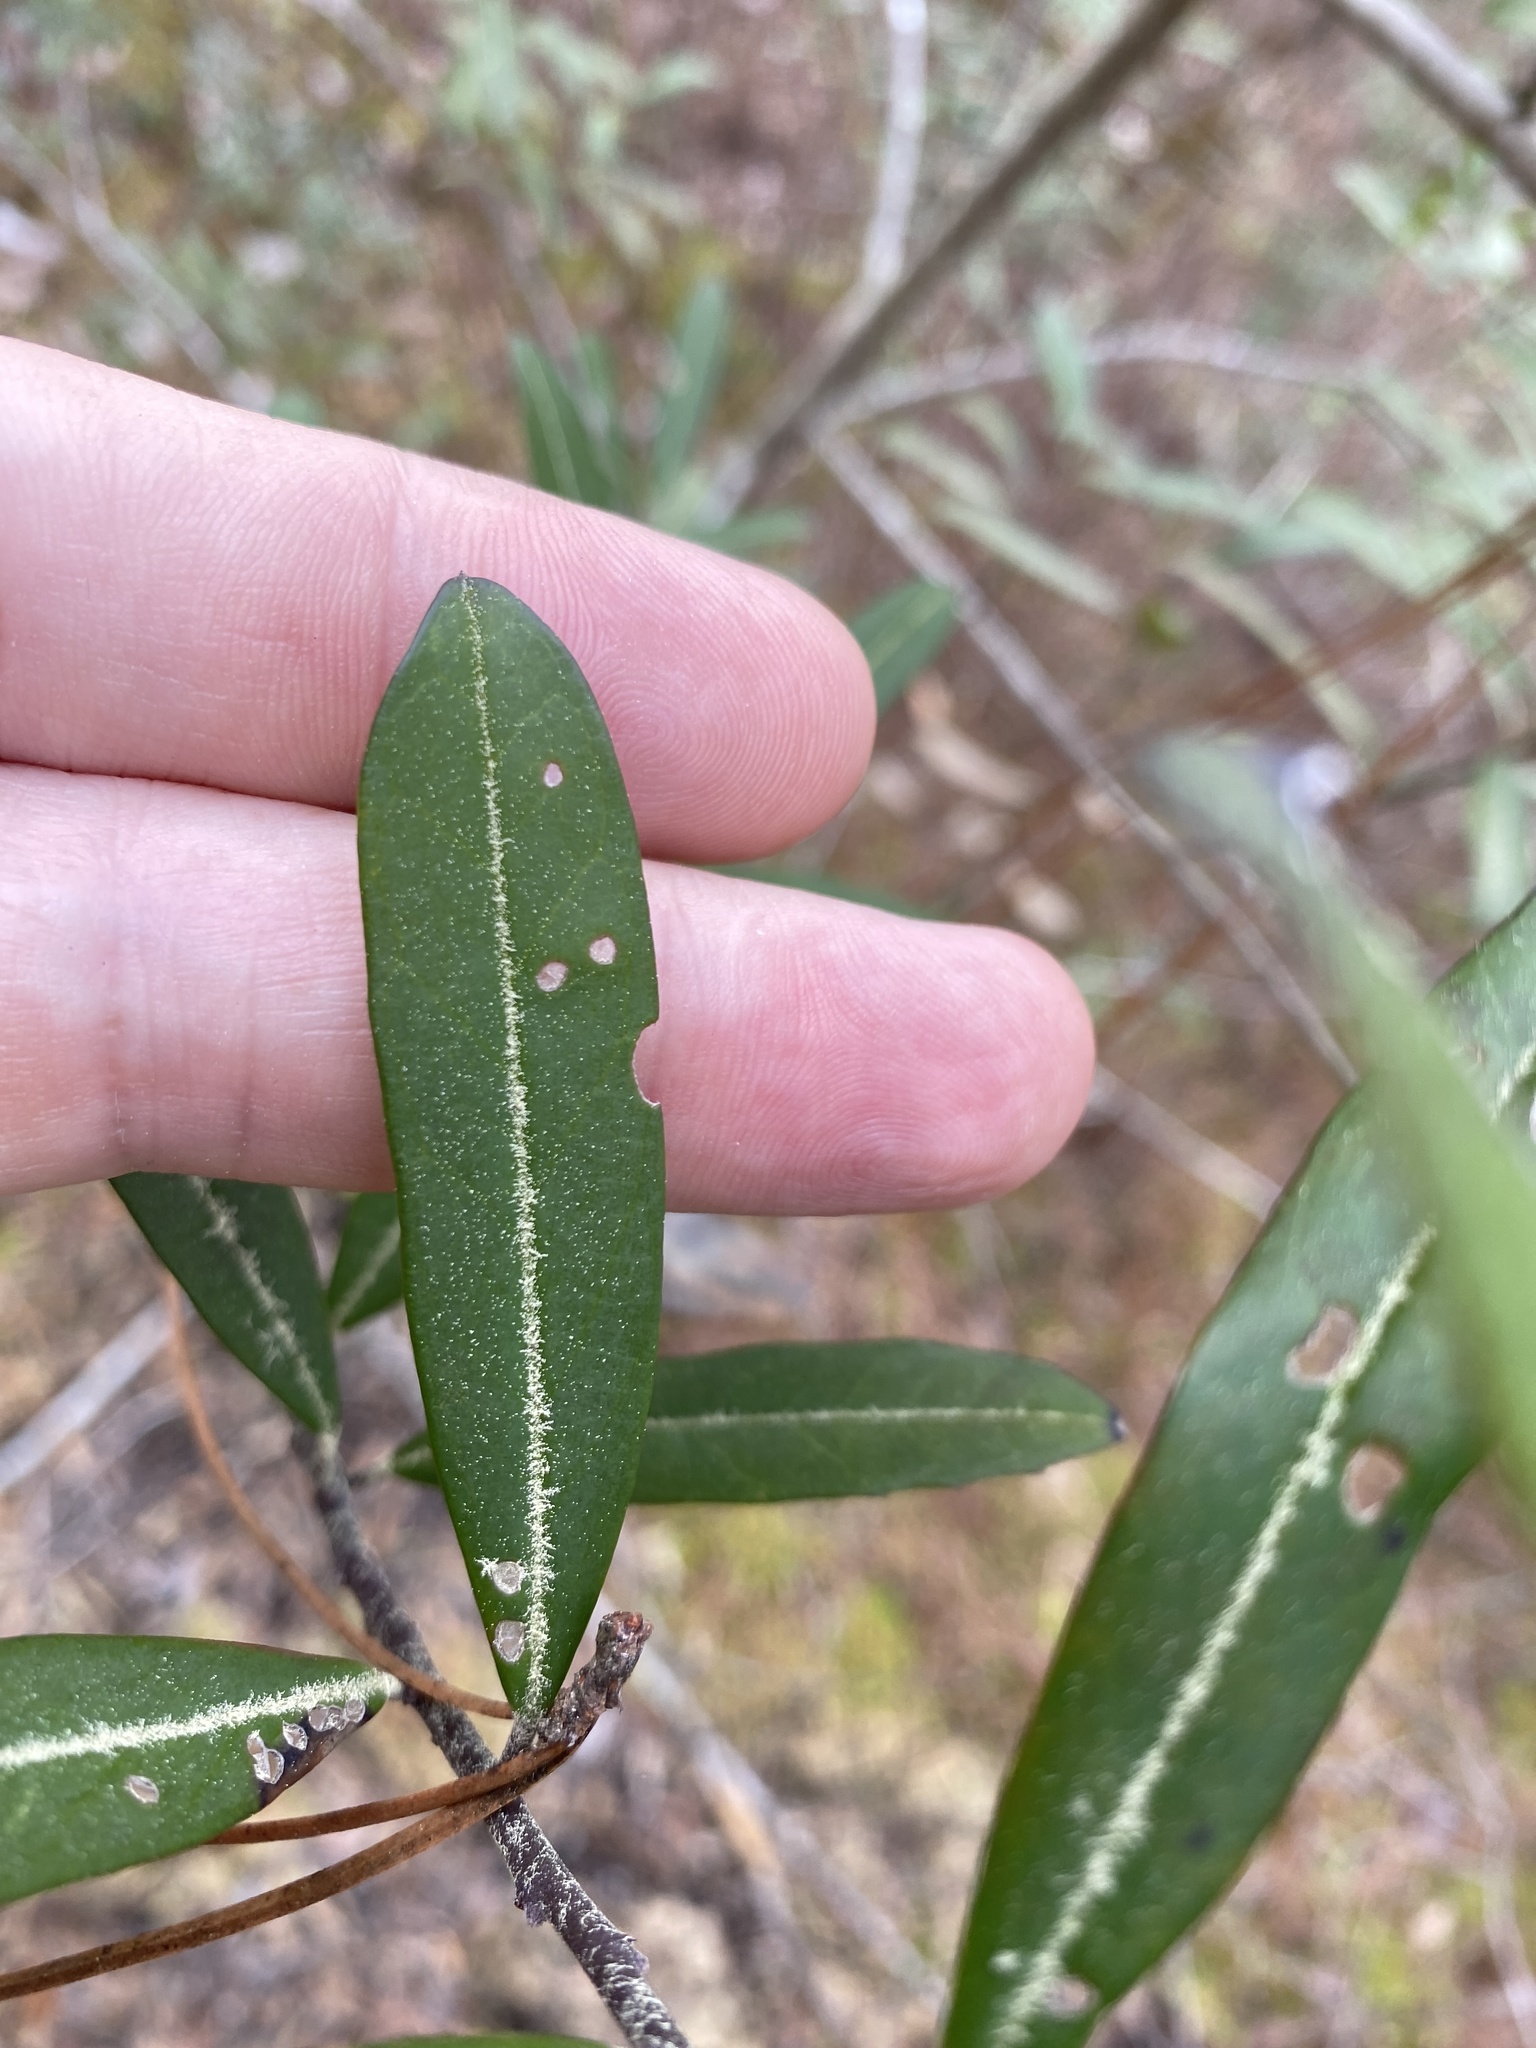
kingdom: Plantae
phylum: Tracheophyta
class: Magnoliopsida
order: Aquifoliales
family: Aquifoliaceae
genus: Ilex
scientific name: Ilex cassine
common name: Dahoon
